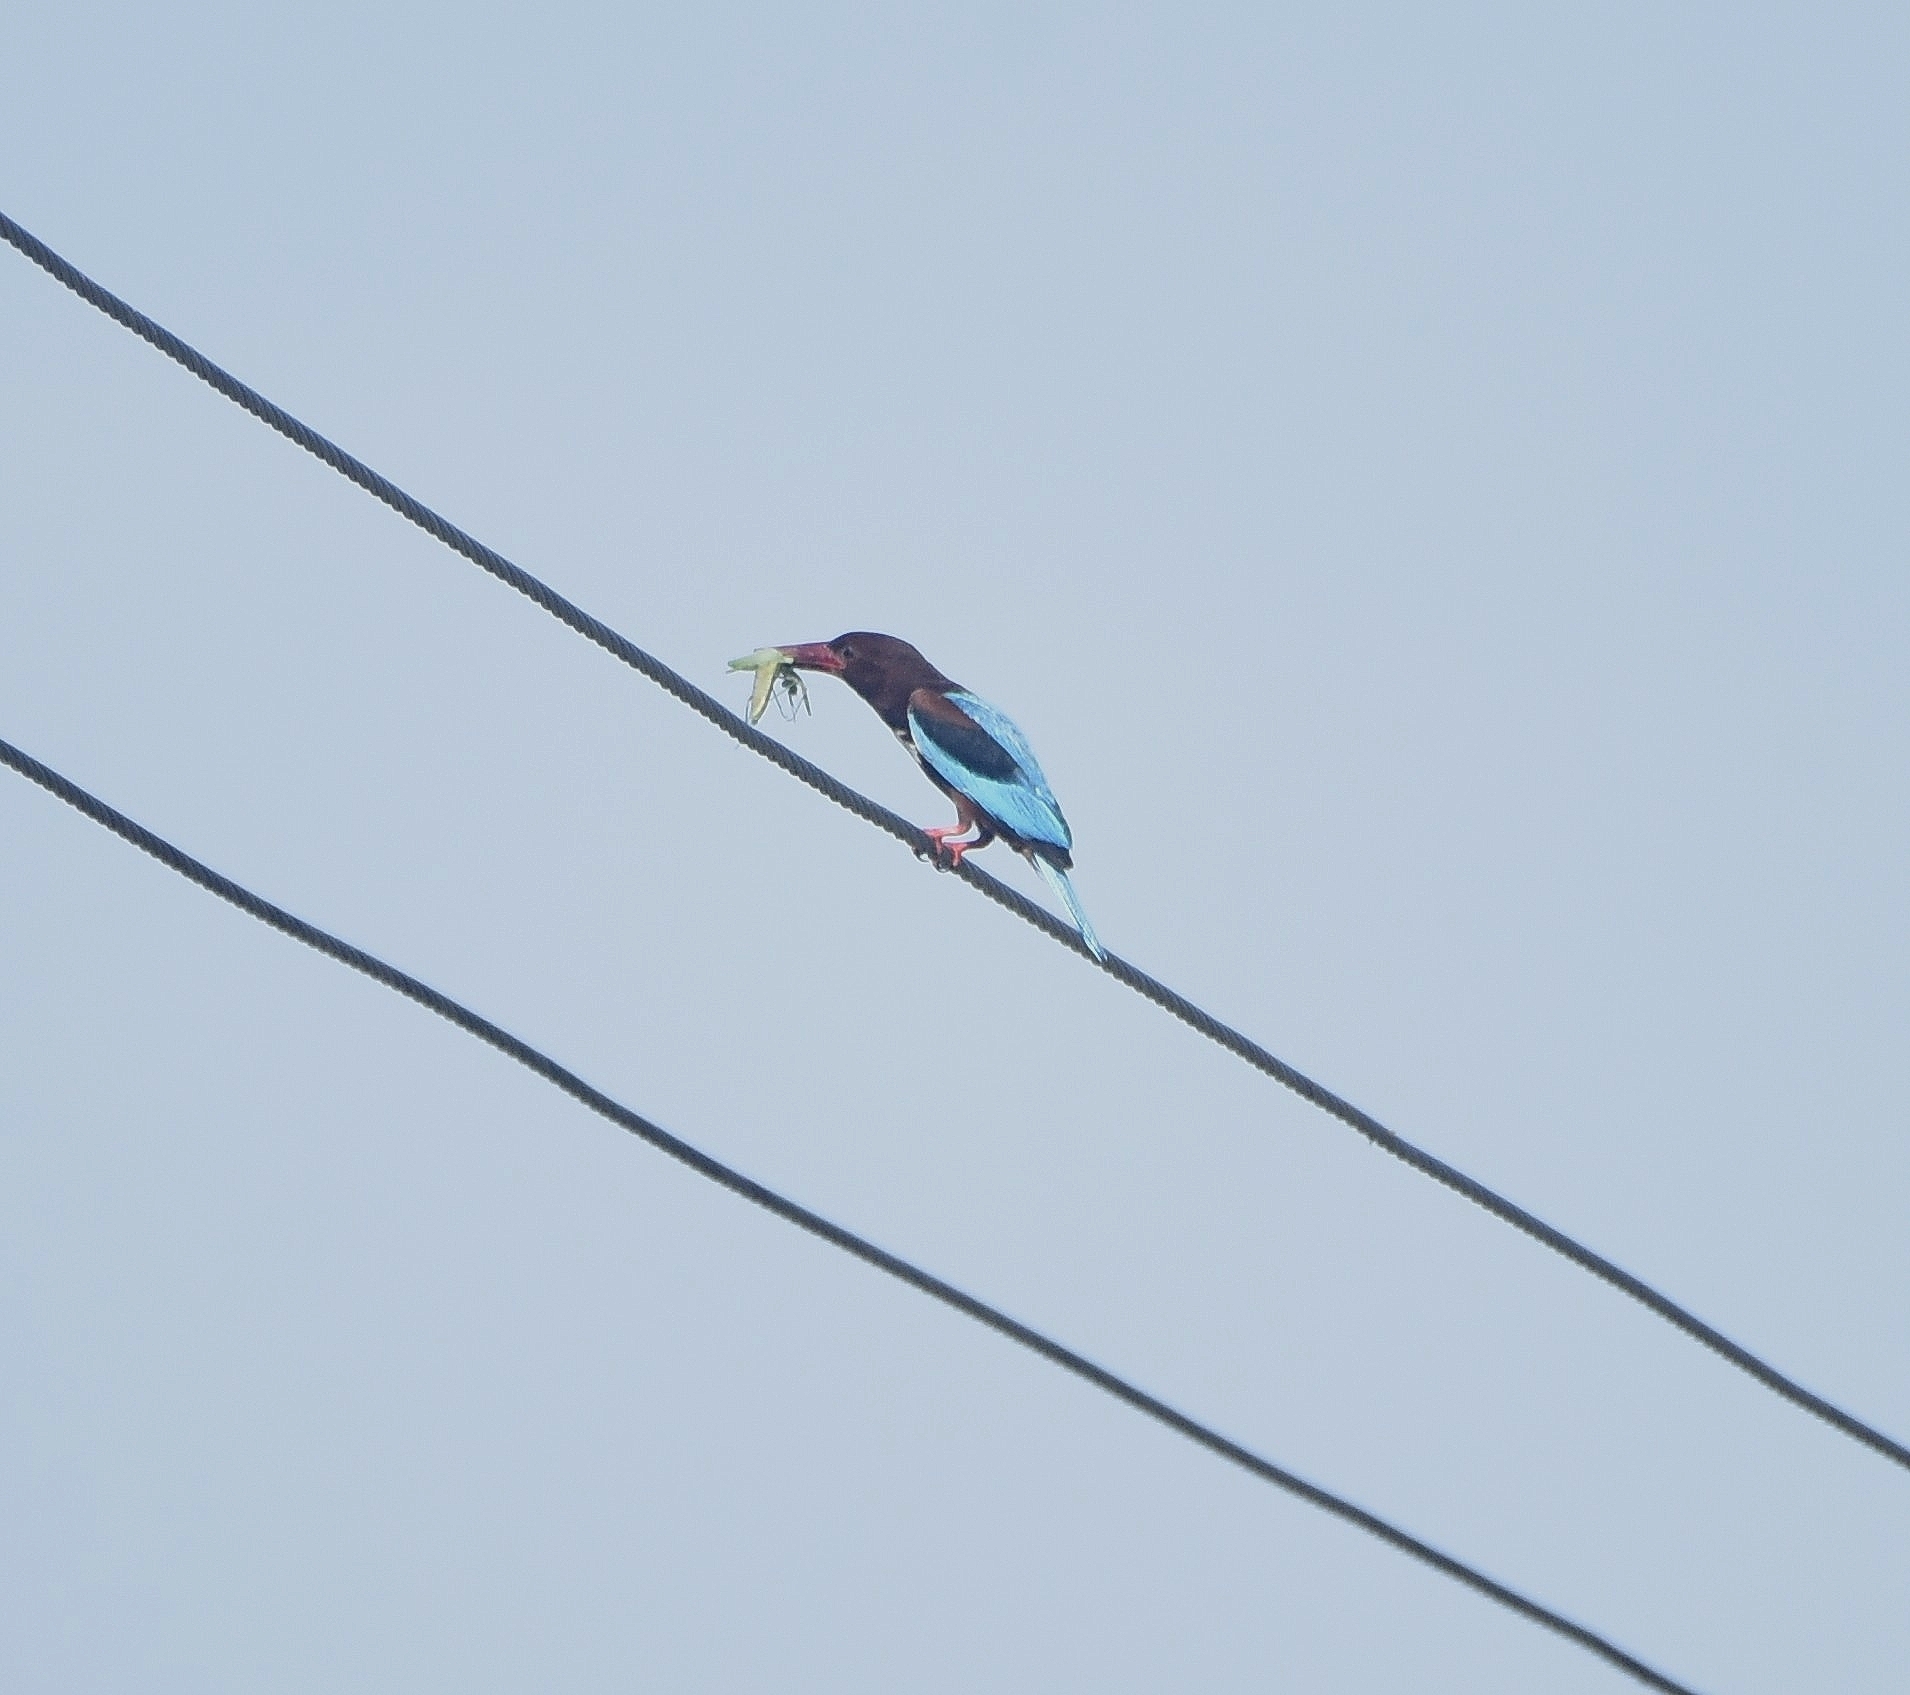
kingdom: Animalia
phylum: Chordata
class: Aves
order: Coraciiformes
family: Alcedinidae
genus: Halcyon
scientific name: Halcyon smyrnensis
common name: White-throated kingfisher
